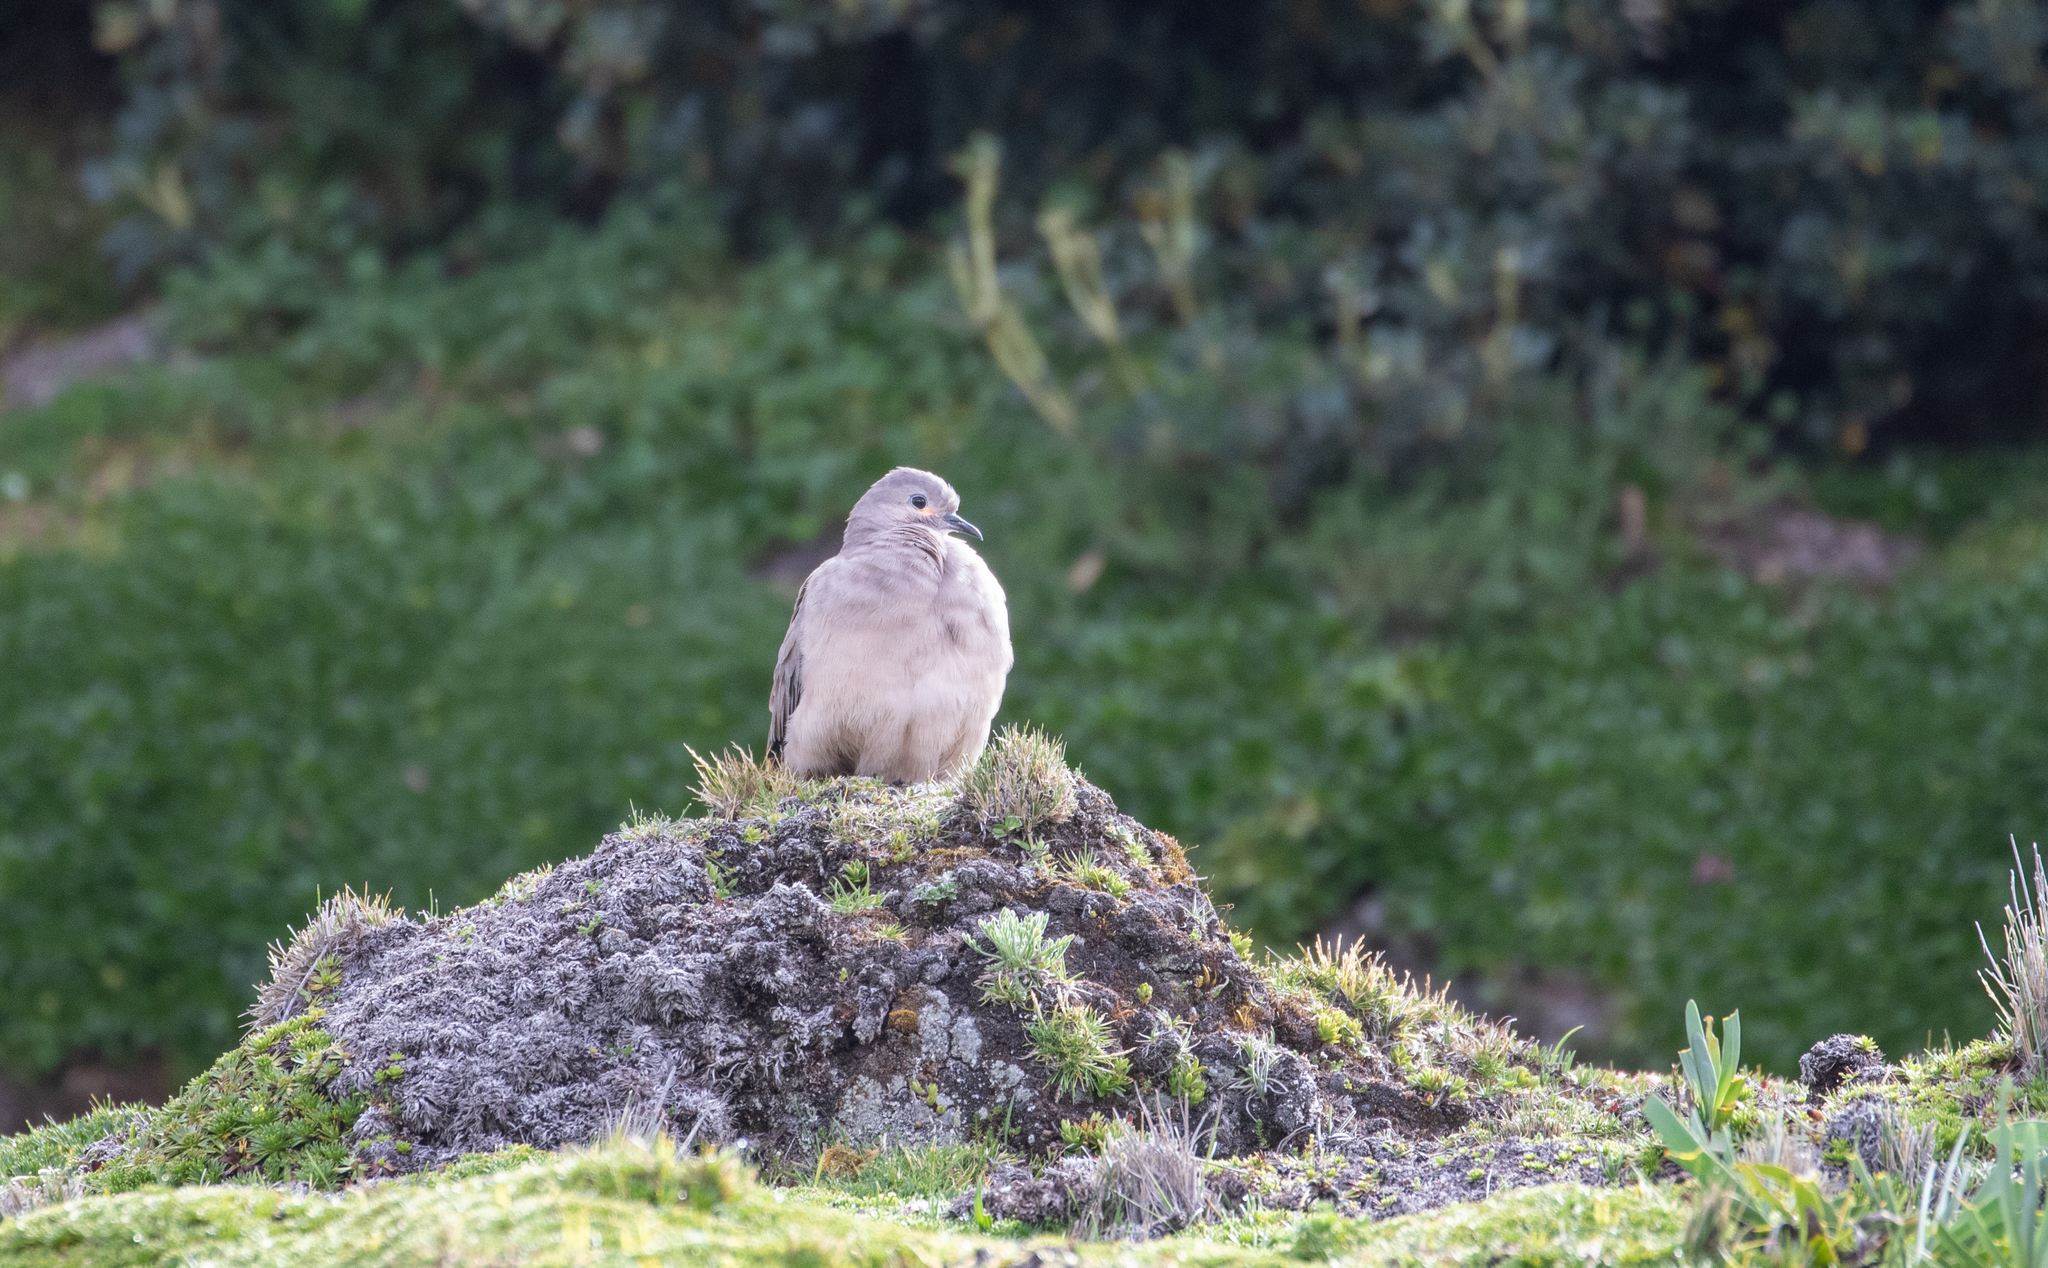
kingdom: Animalia
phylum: Chordata
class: Aves
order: Columbiformes
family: Columbidae
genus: Metriopelia
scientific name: Metriopelia melanoptera
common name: Black-winged ground dove
